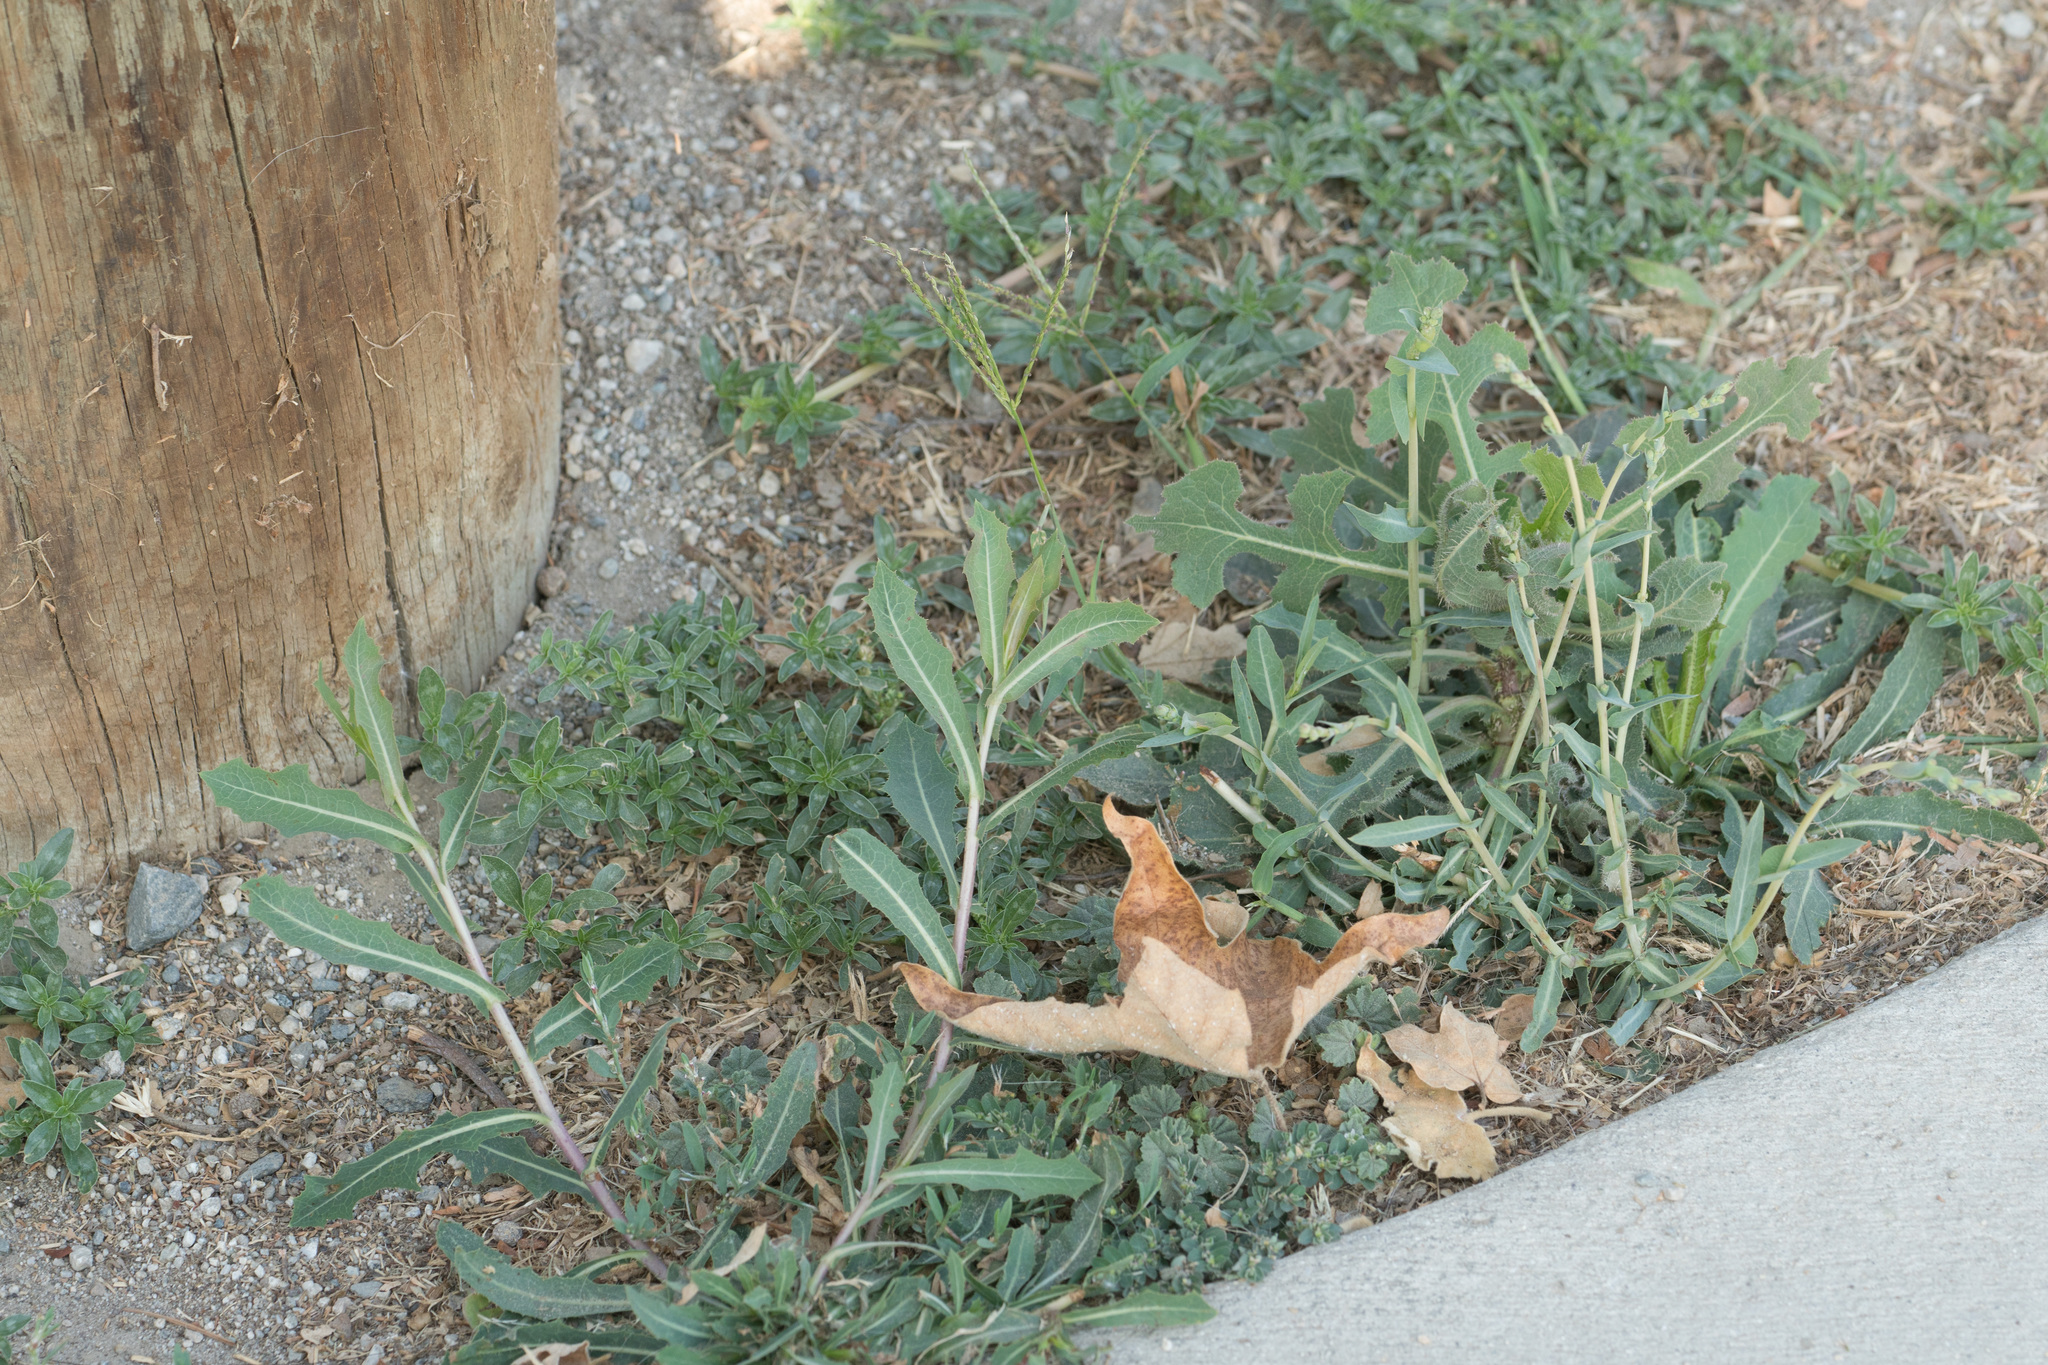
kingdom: Plantae
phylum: Tracheophyta
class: Magnoliopsida
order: Asterales
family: Asteraceae
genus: Lactuca
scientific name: Lactuca serriola
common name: Prickly lettuce
